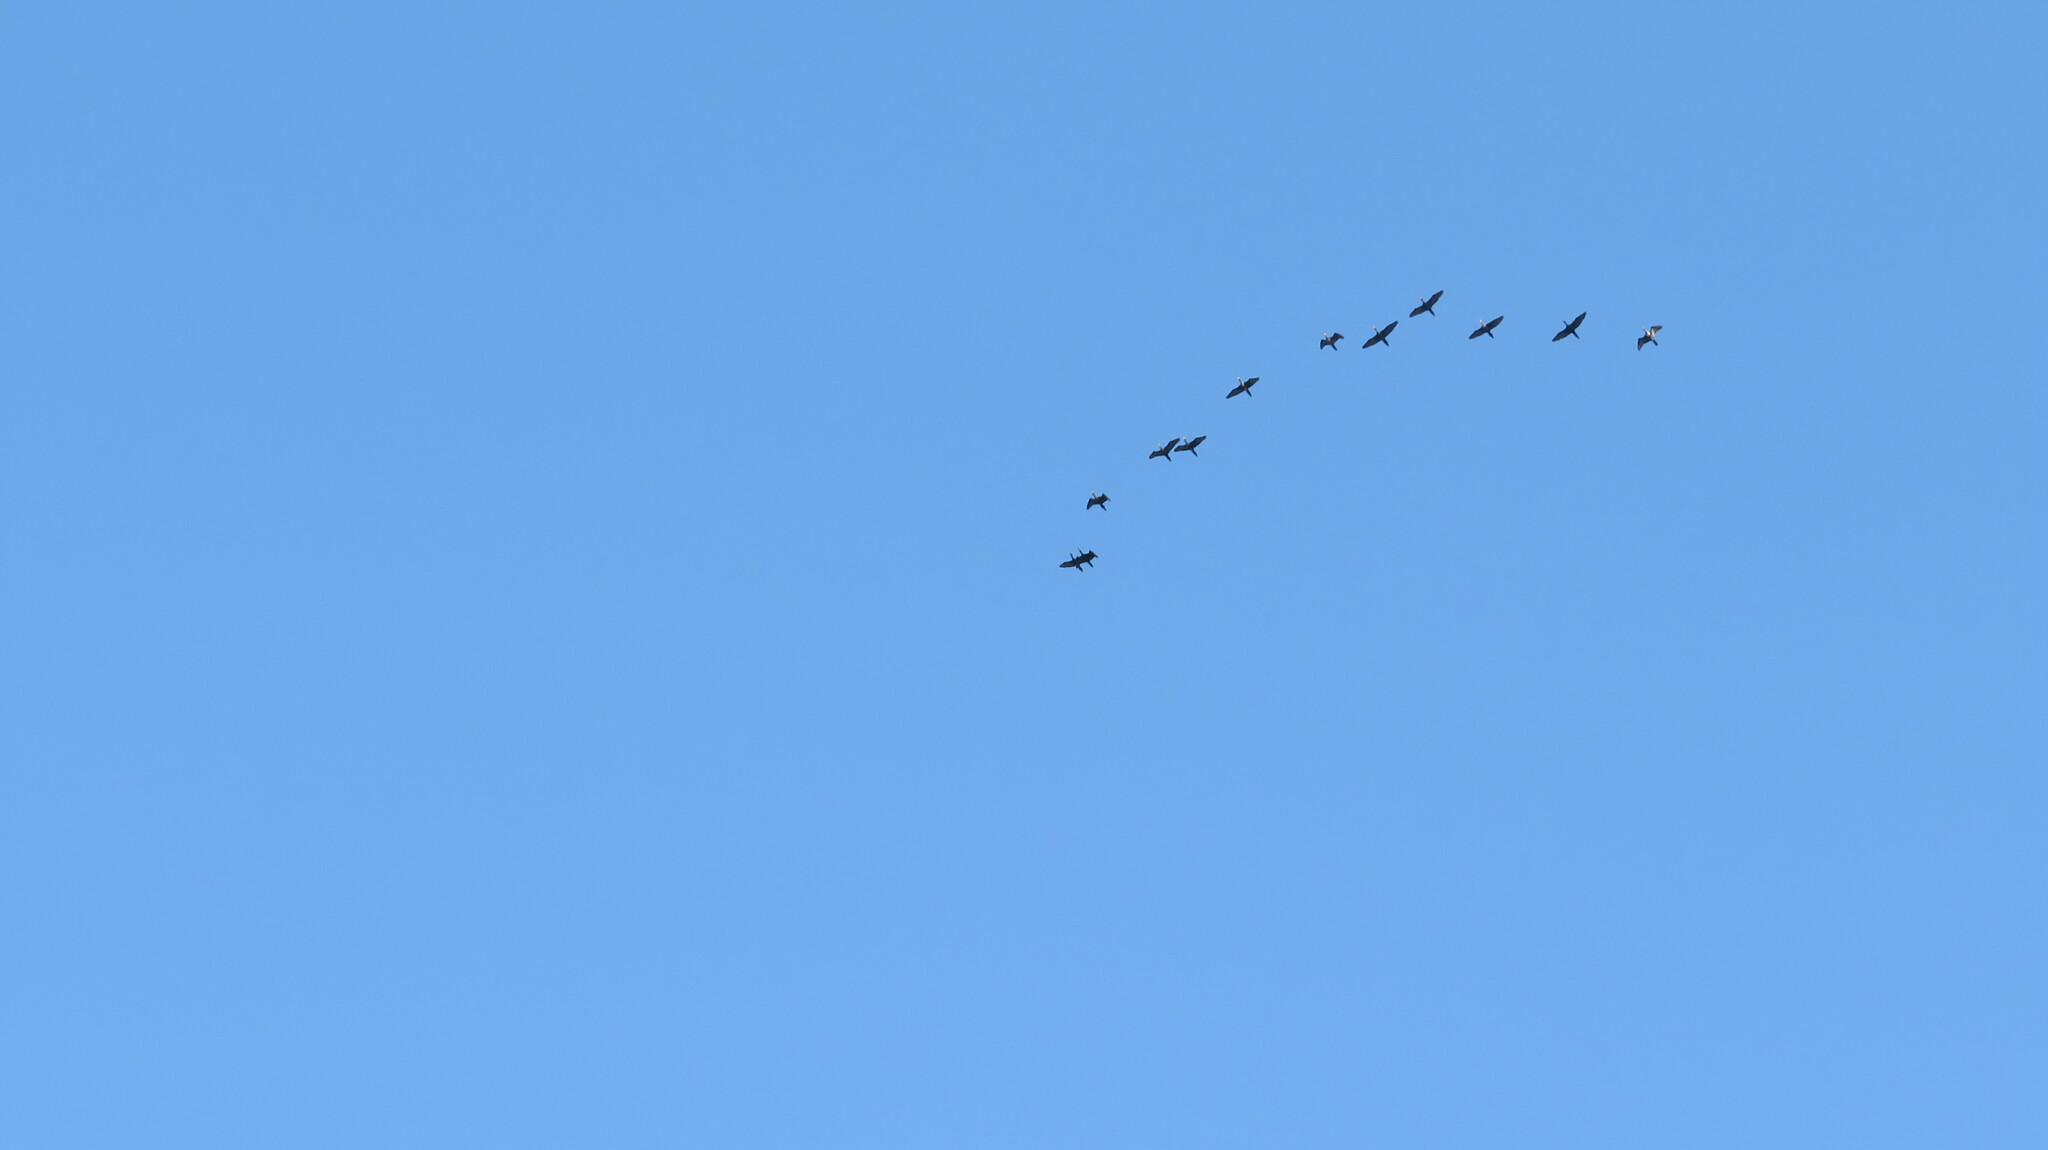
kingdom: Animalia
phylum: Chordata
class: Aves
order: Suliformes
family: Phalacrocoracidae
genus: Phalacrocorax
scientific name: Phalacrocorax fuscicollis
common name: Indian cormorant
